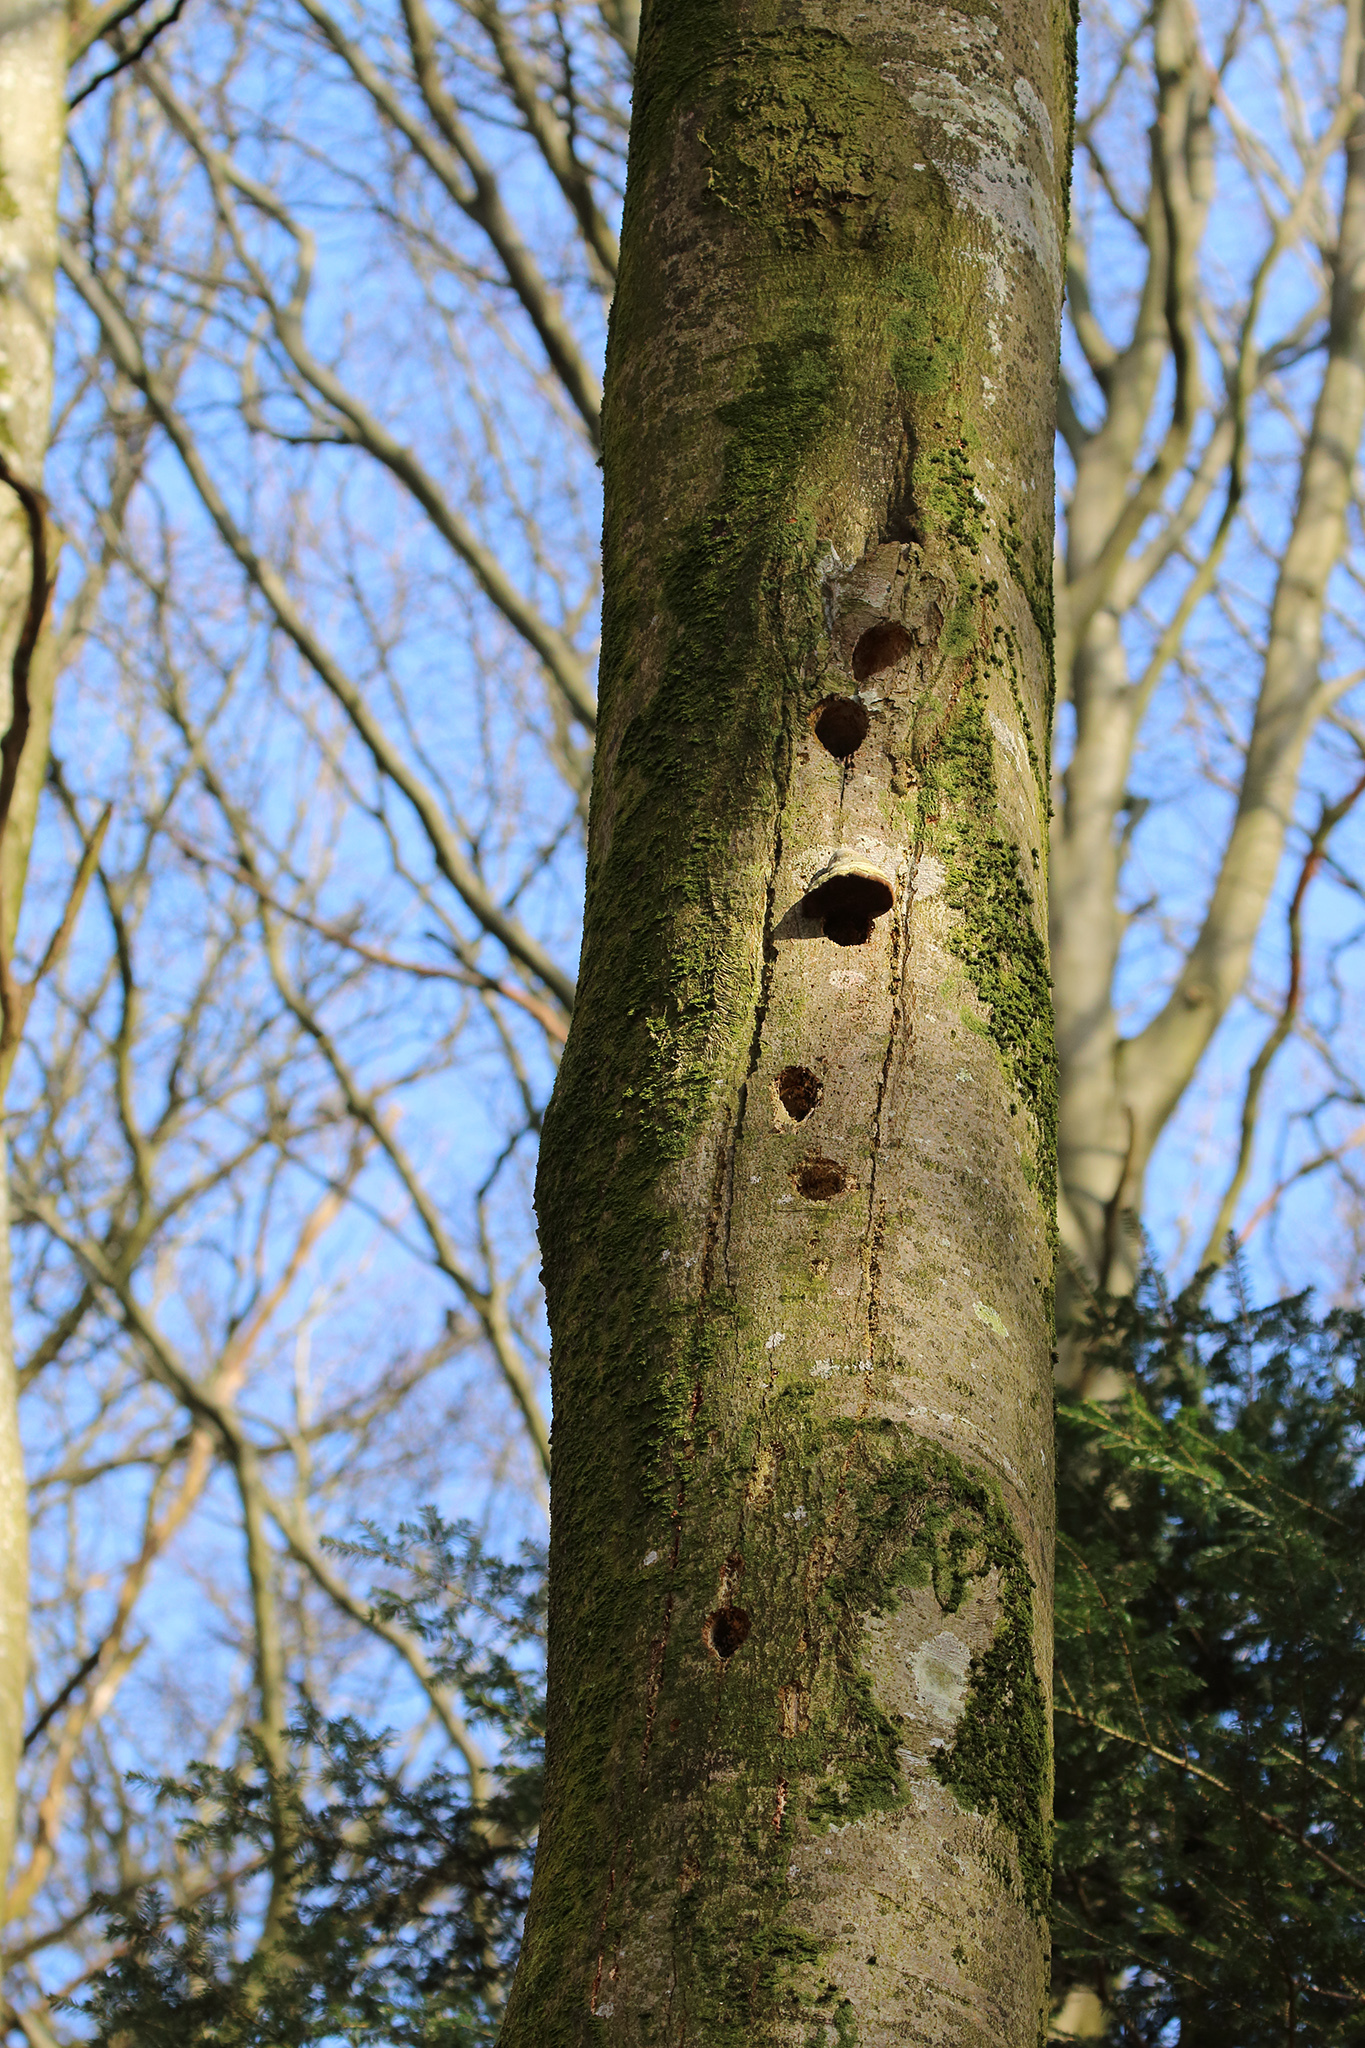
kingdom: Animalia
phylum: Chordata
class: Aves
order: Passeriformes
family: Sittidae
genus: Sitta
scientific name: Sitta europaea
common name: Eurasian nuthatch
